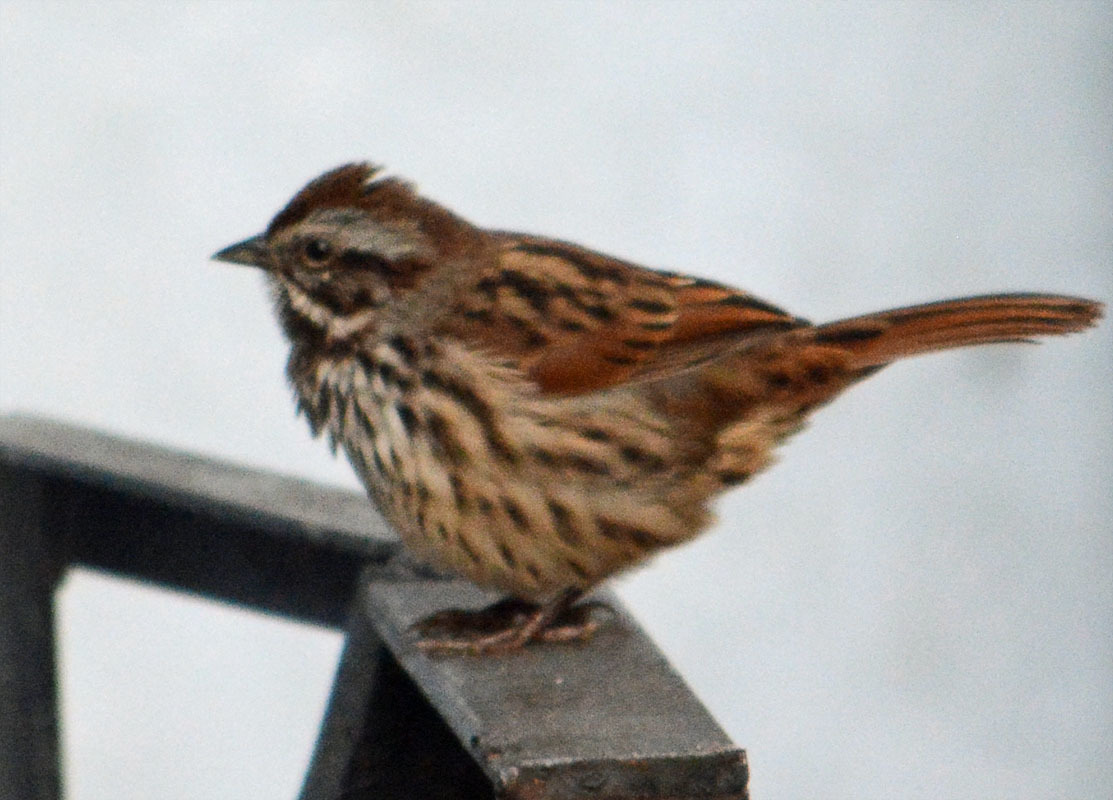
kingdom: Animalia
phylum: Chordata
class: Aves
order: Passeriformes
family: Passerellidae
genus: Melospiza
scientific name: Melospiza melodia
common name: Song sparrow
